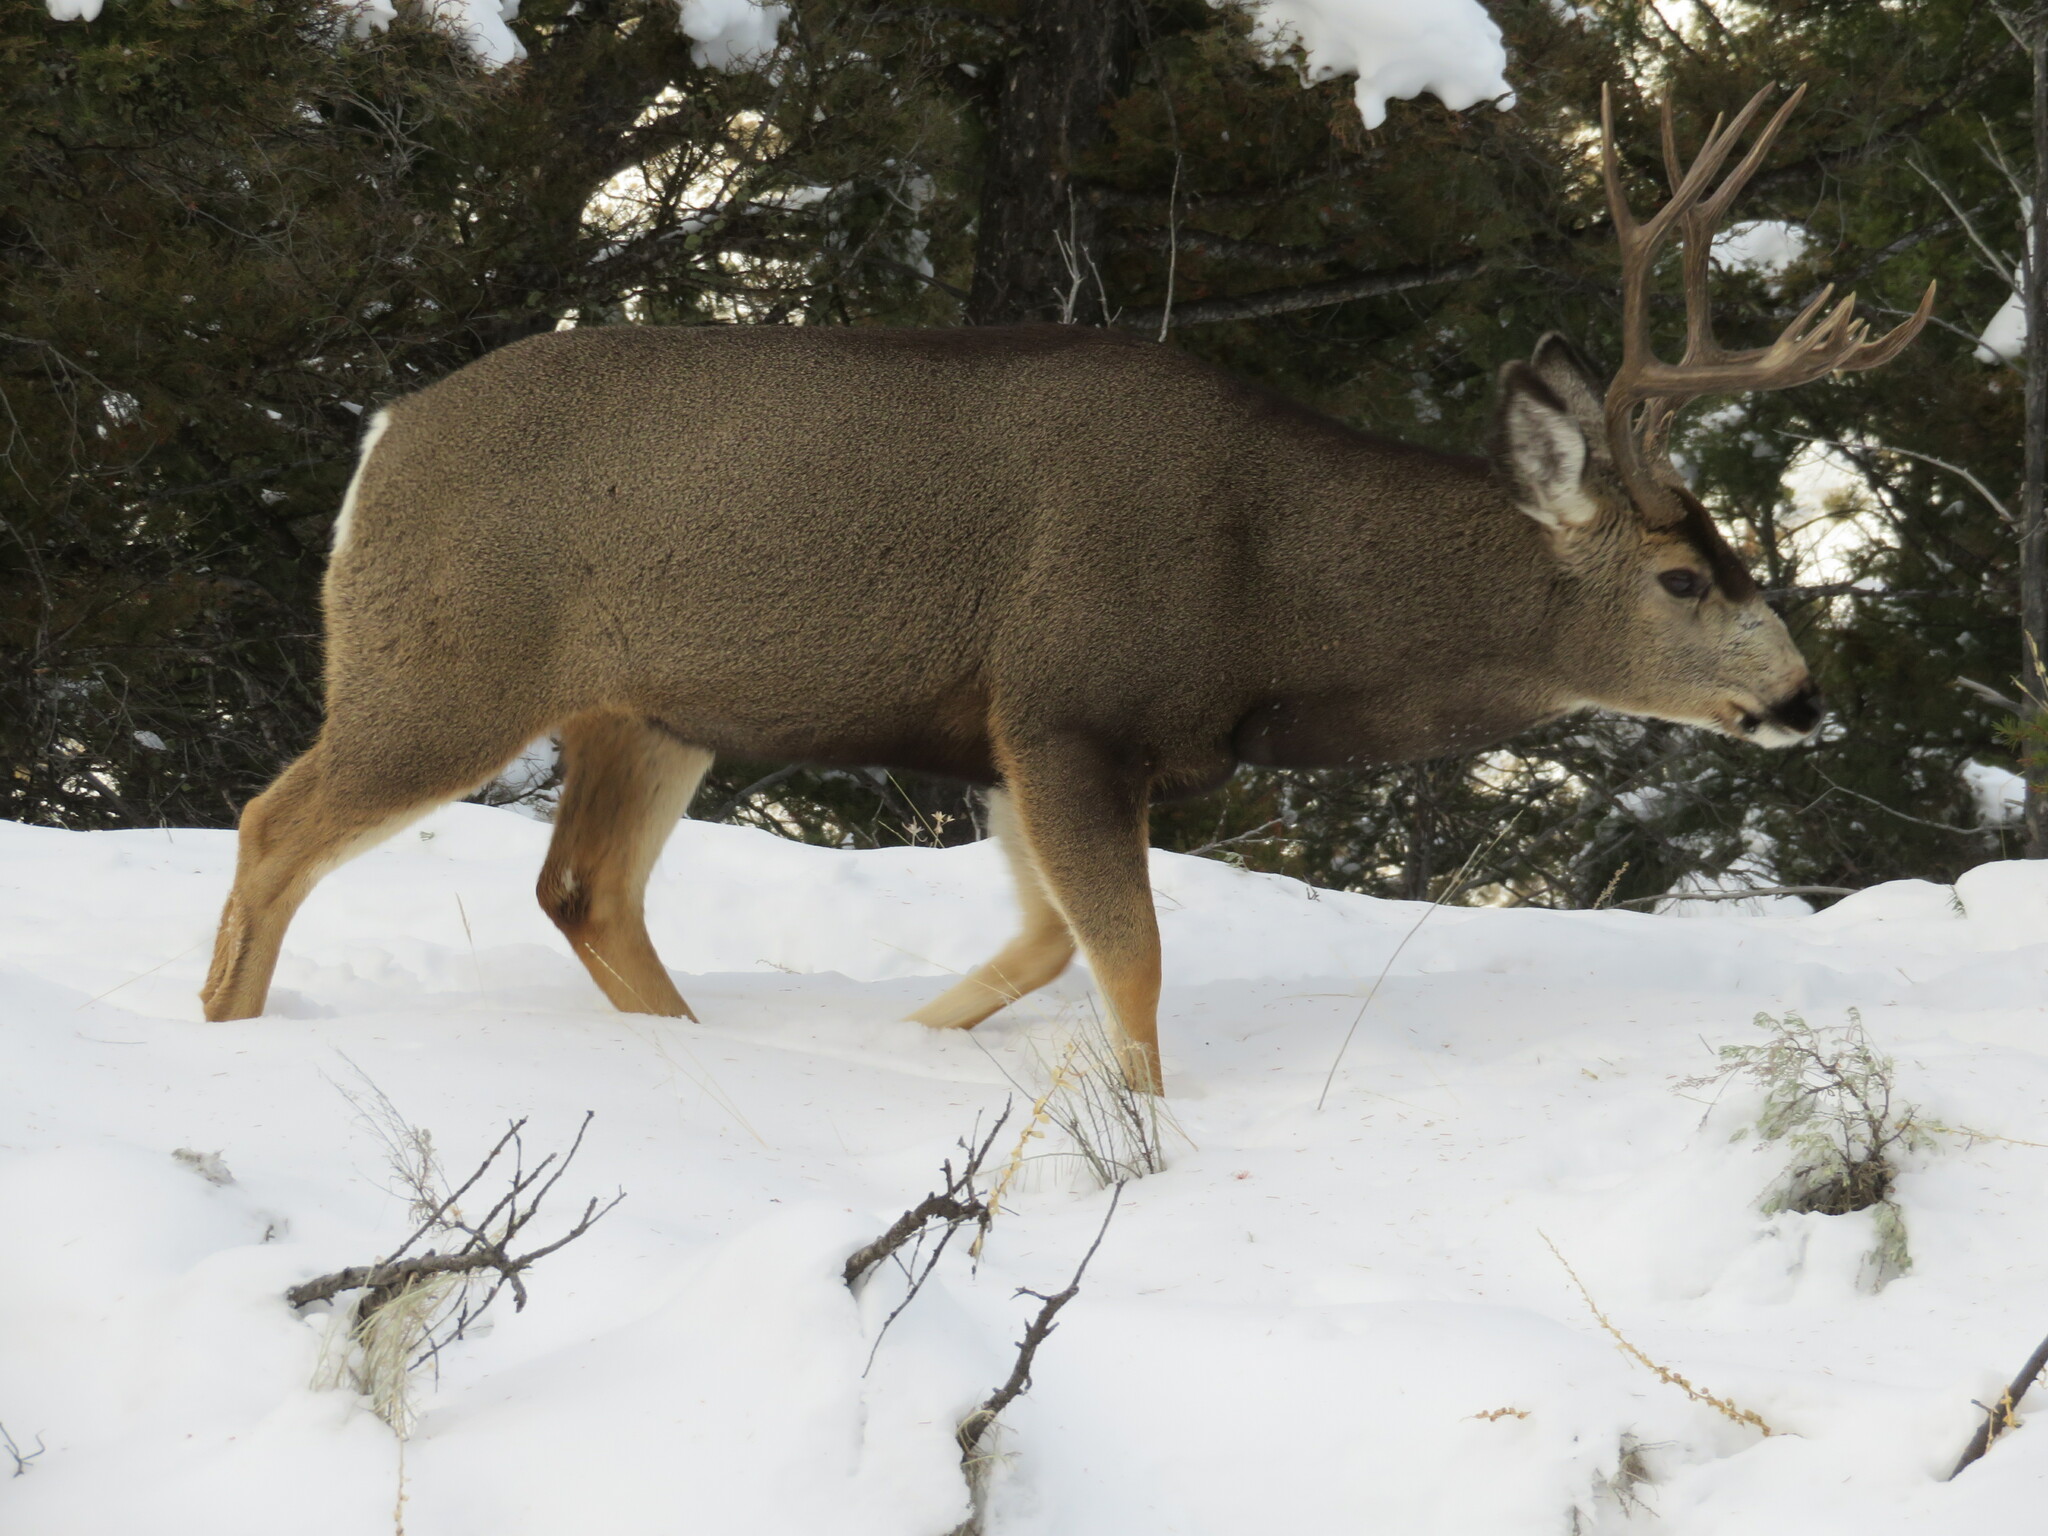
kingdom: Animalia
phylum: Chordata
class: Mammalia
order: Artiodactyla
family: Cervidae
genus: Odocoileus
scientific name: Odocoileus hemionus
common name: Mule deer
